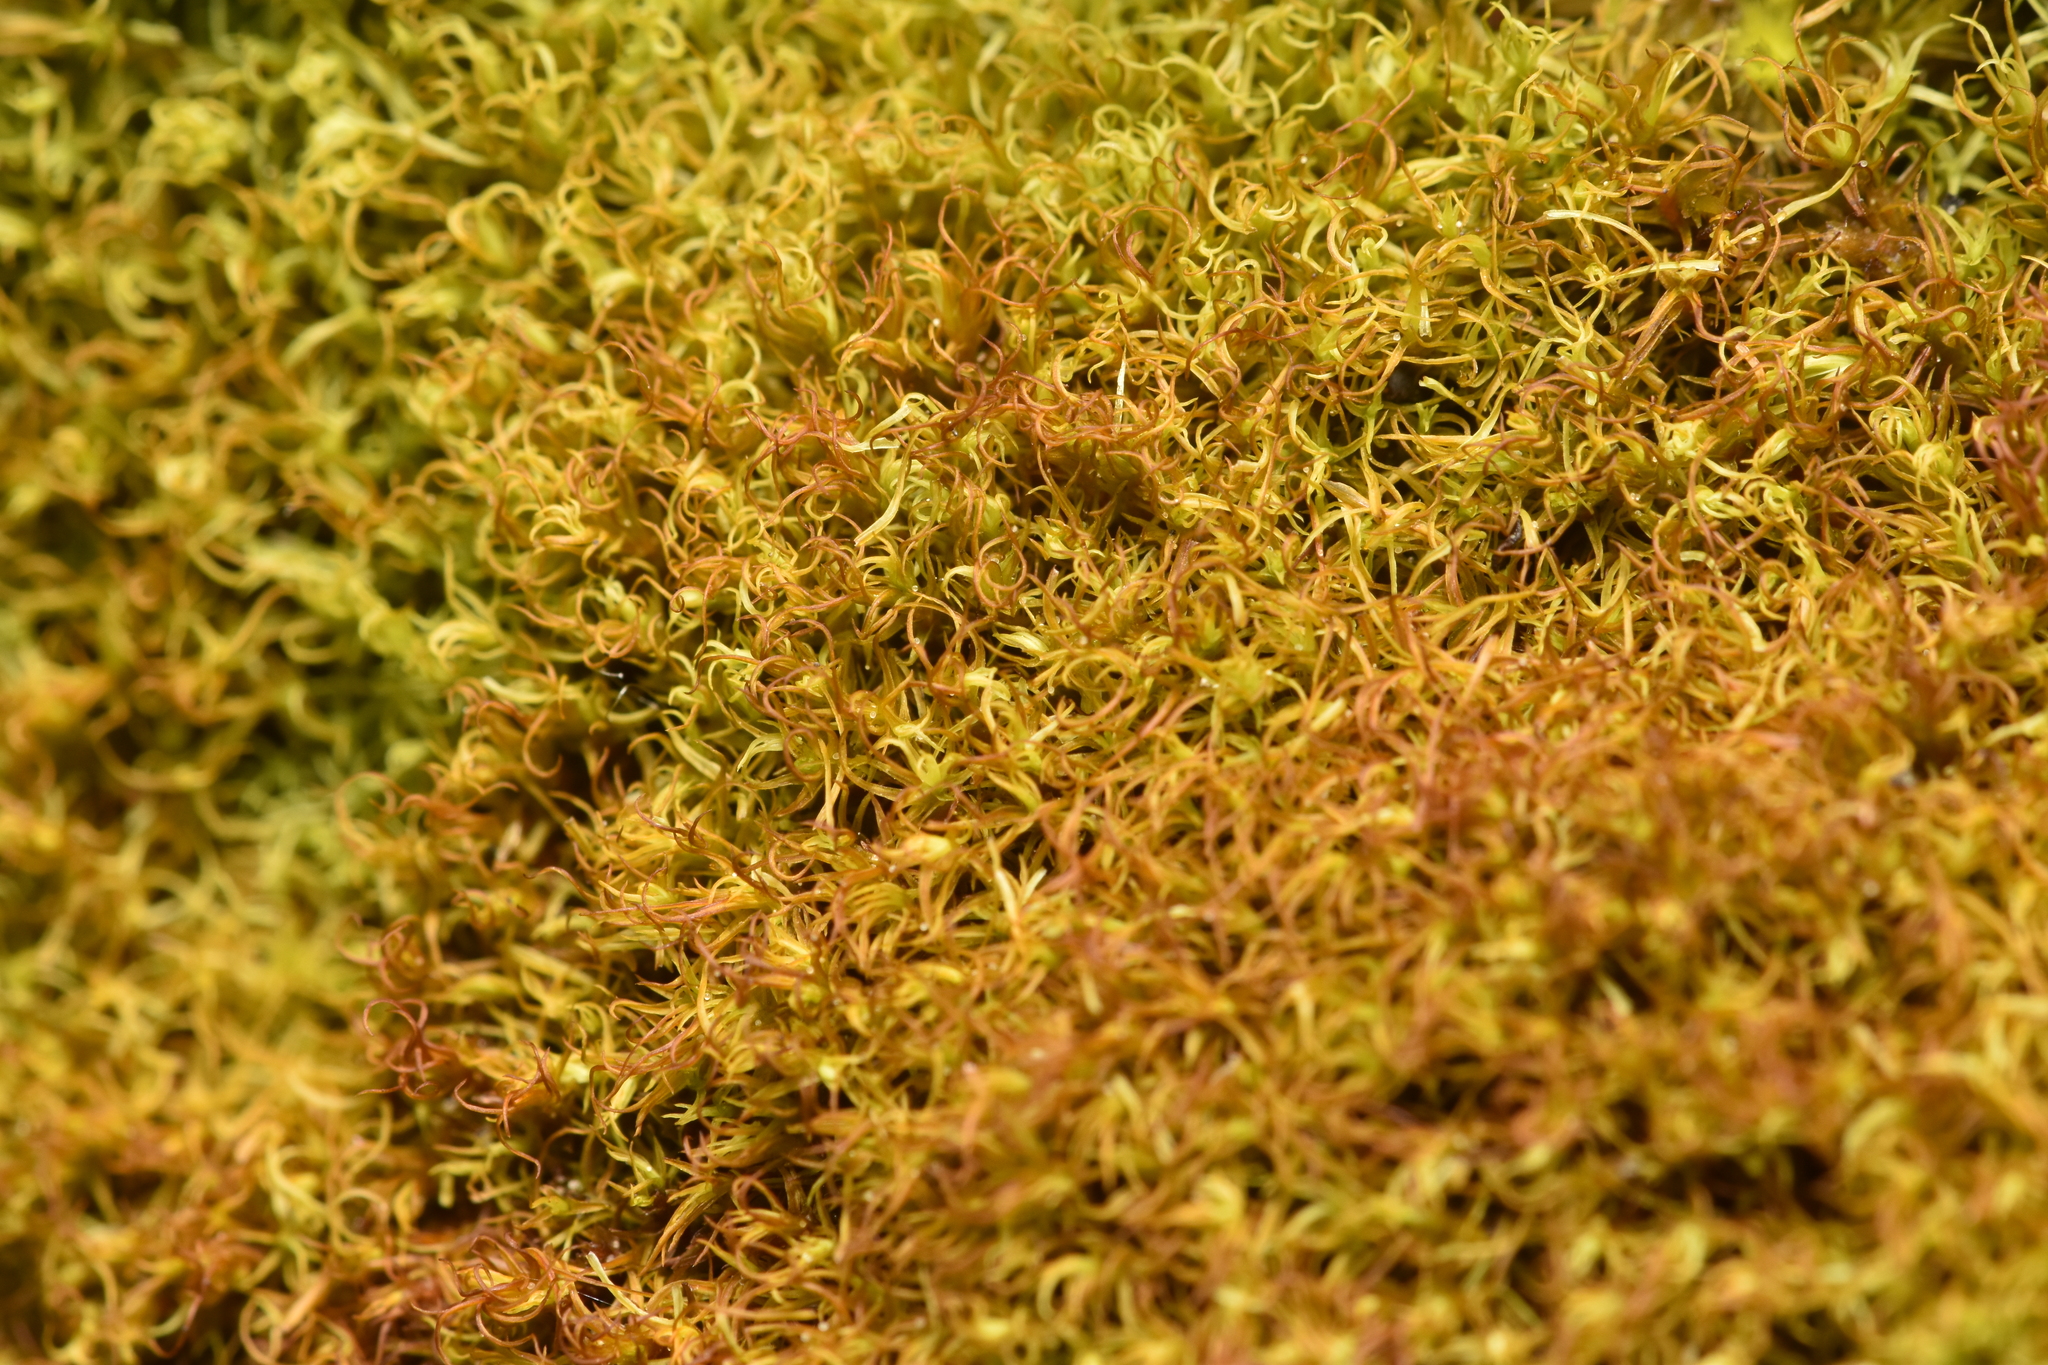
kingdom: Plantae
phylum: Bryophyta
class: Bryopsida
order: Pottiales
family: Pottiaceae
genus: Vinealobryum
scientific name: Vinealobryum vineale
